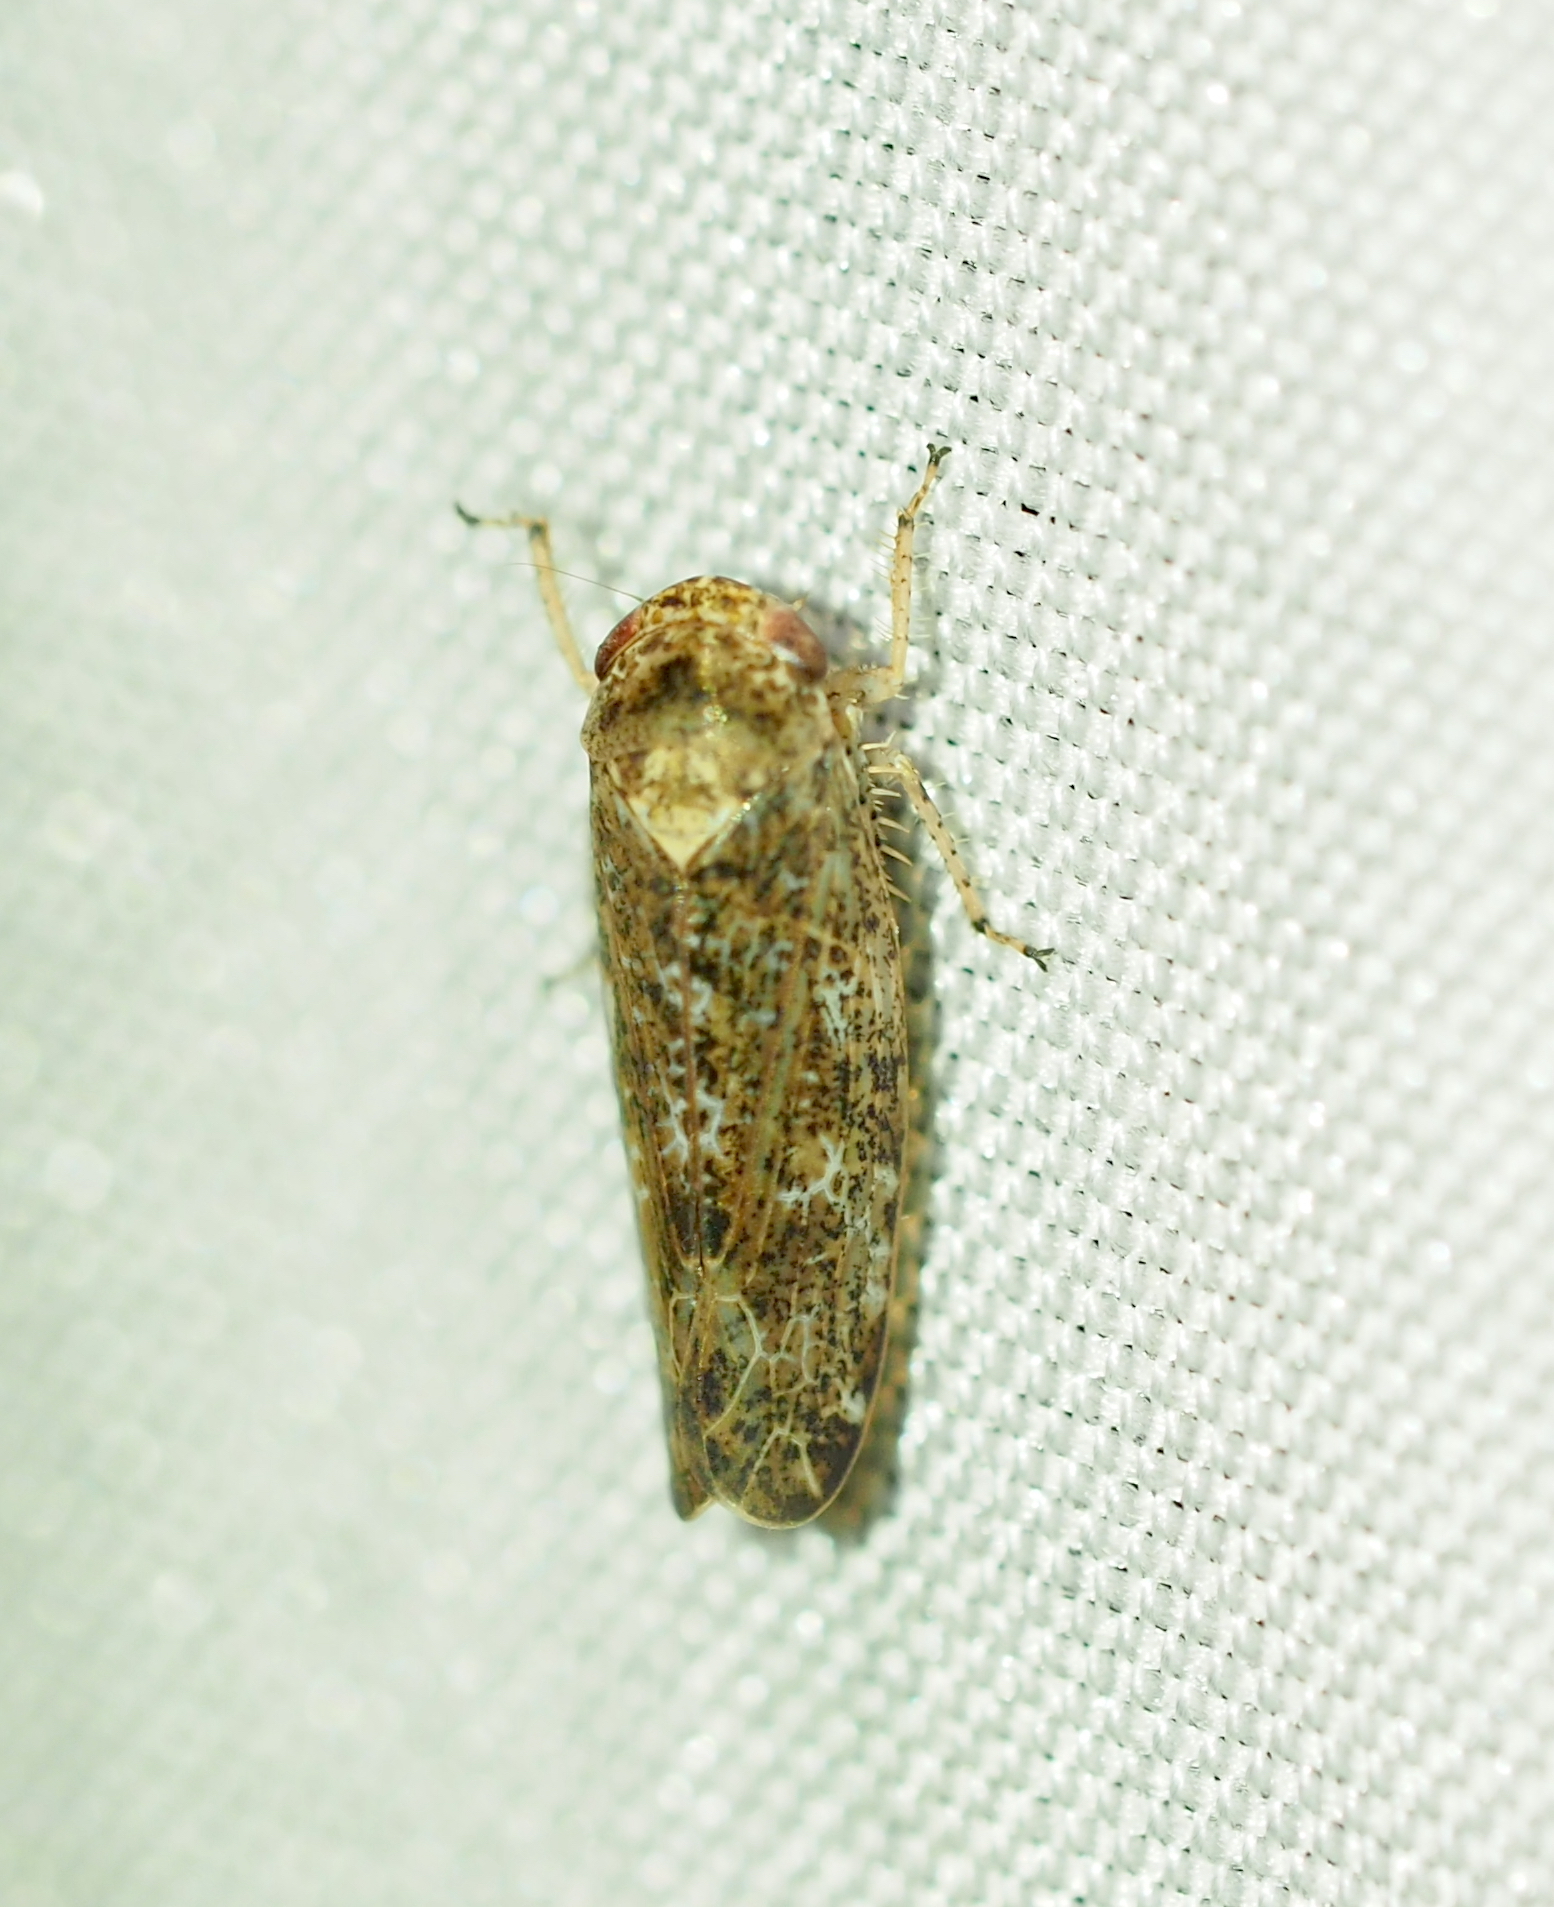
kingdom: Animalia
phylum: Arthropoda
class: Insecta
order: Hemiptera
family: Cicadellidae
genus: Allygidius
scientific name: Allygidius atomarius
